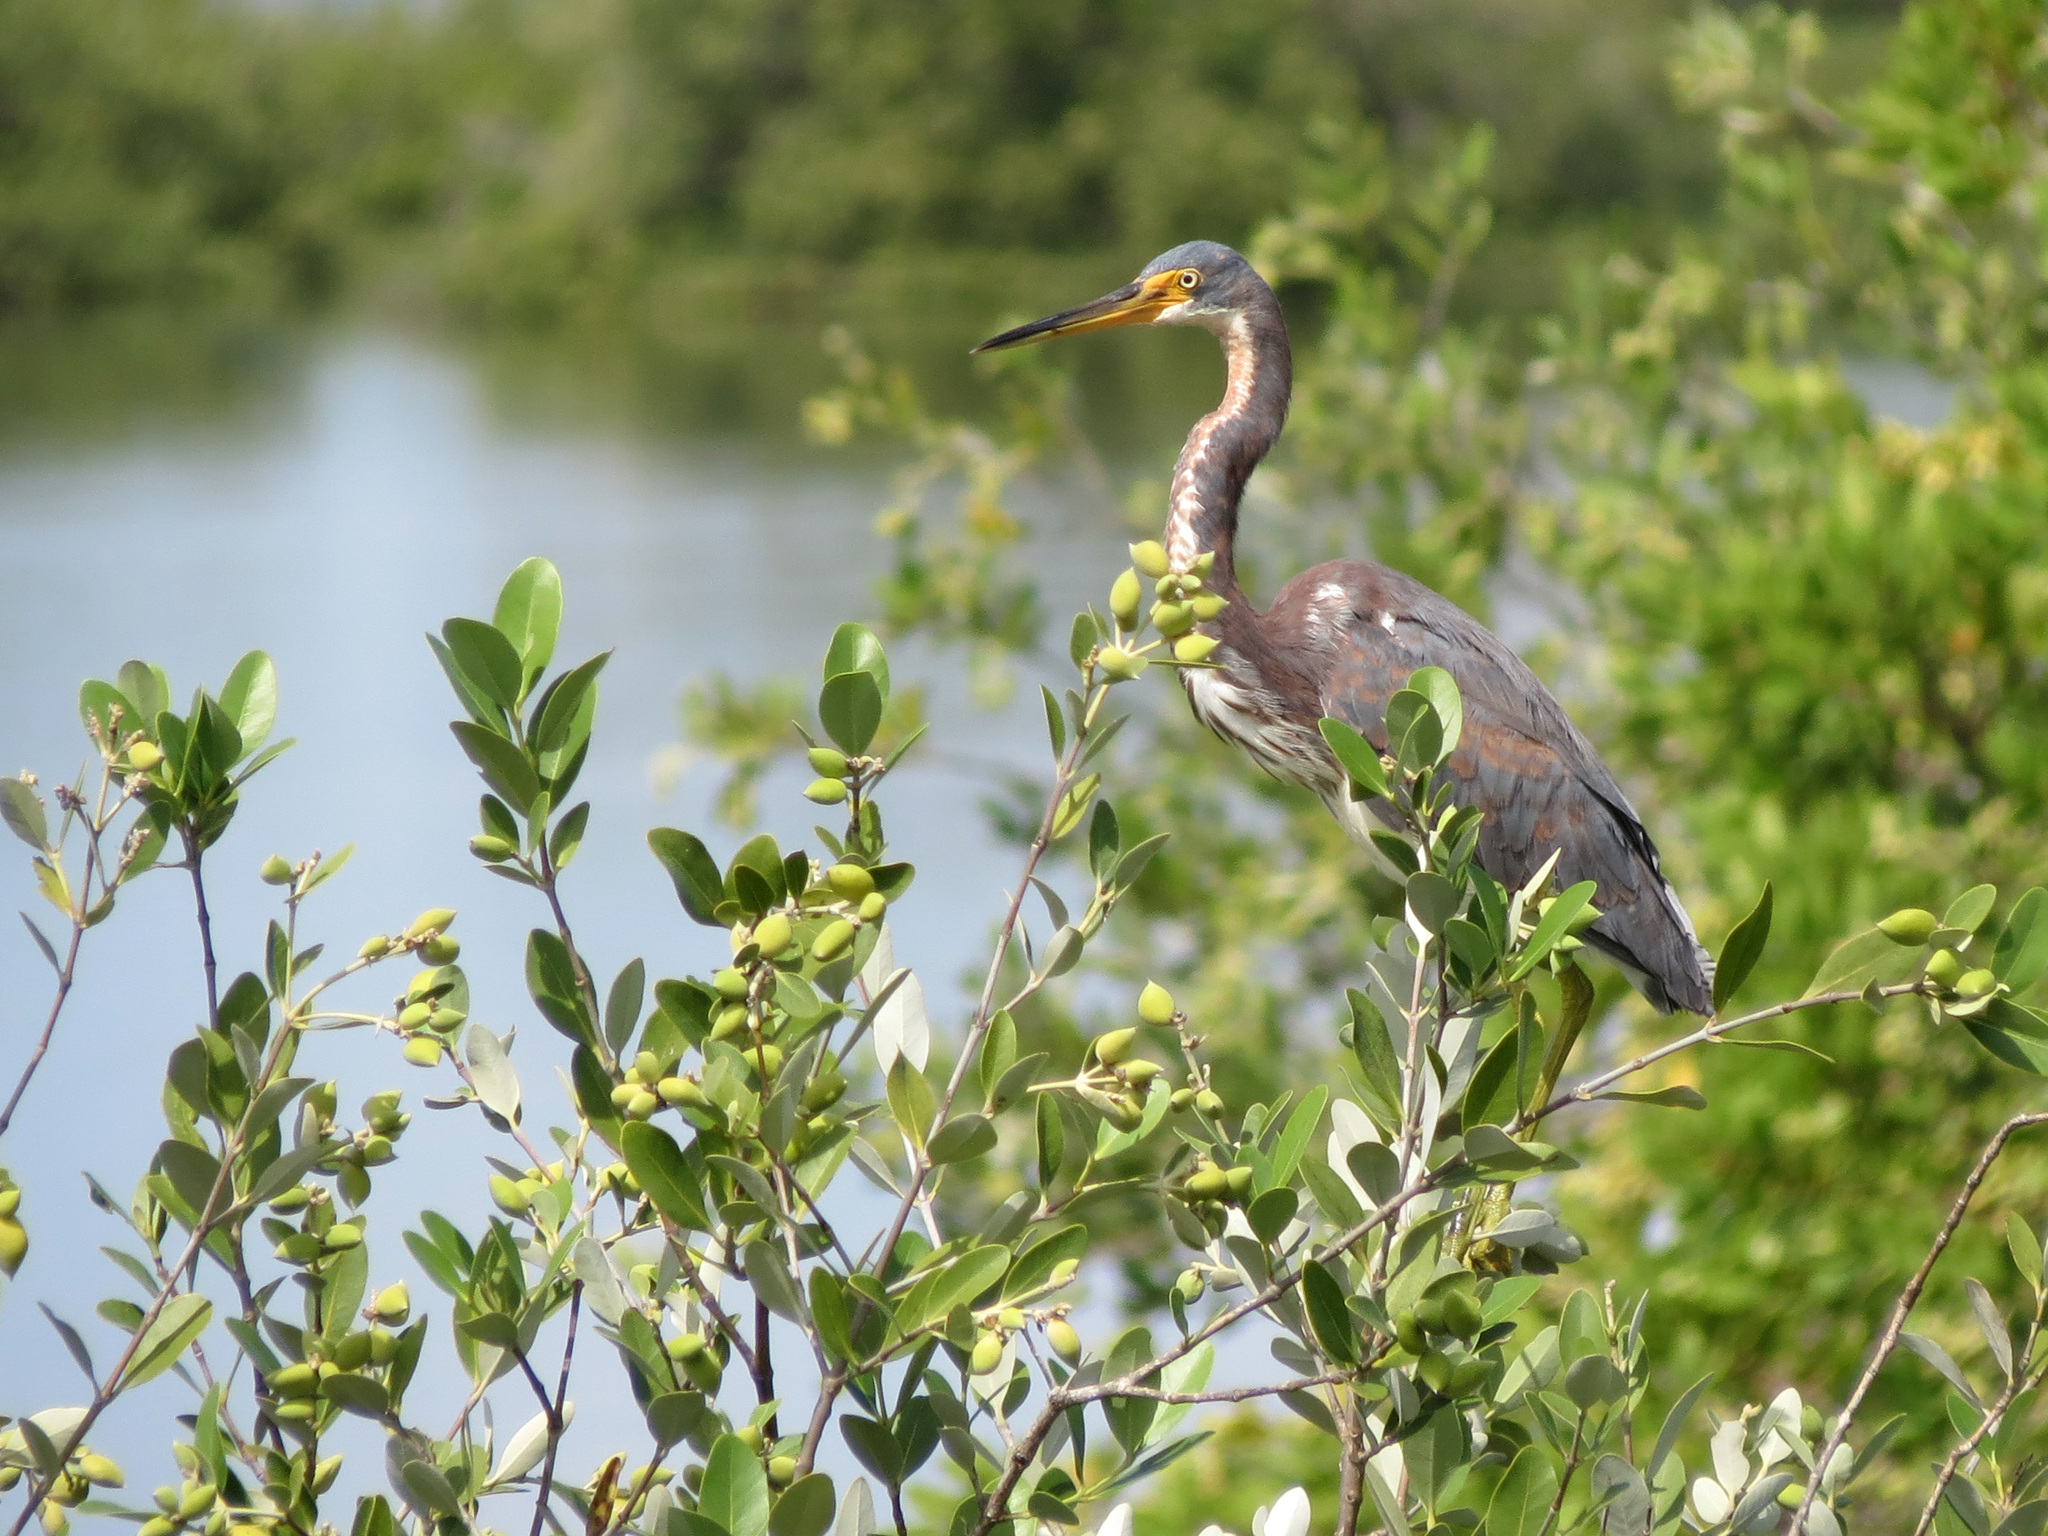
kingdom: Animalia
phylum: Chordata
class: Aves
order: Pelecaniformes
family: Ardeidae
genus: Egretta
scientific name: Egretta tricolor
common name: Tricolored heron
